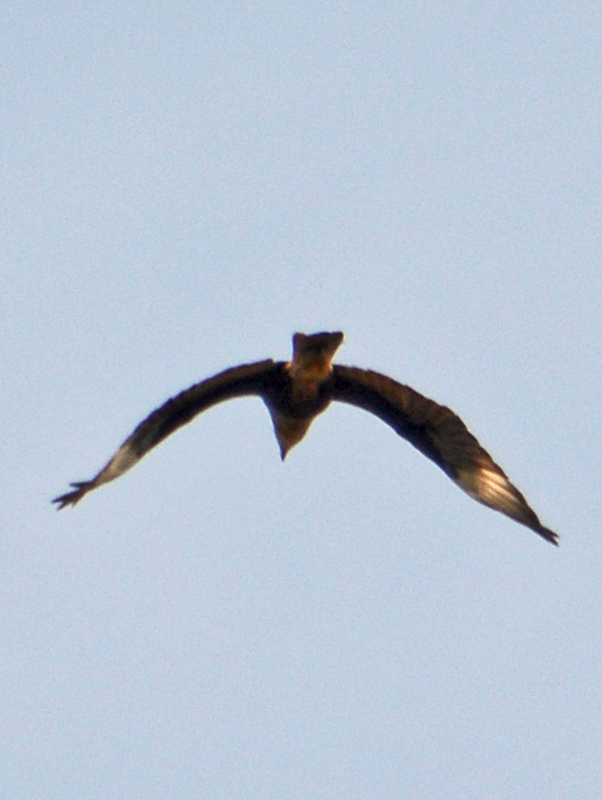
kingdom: Animalia
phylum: Chordata
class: Aves
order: Falconiformes
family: Falconidae
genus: Caracara
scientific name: Caracara plancus
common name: Southern caracara
